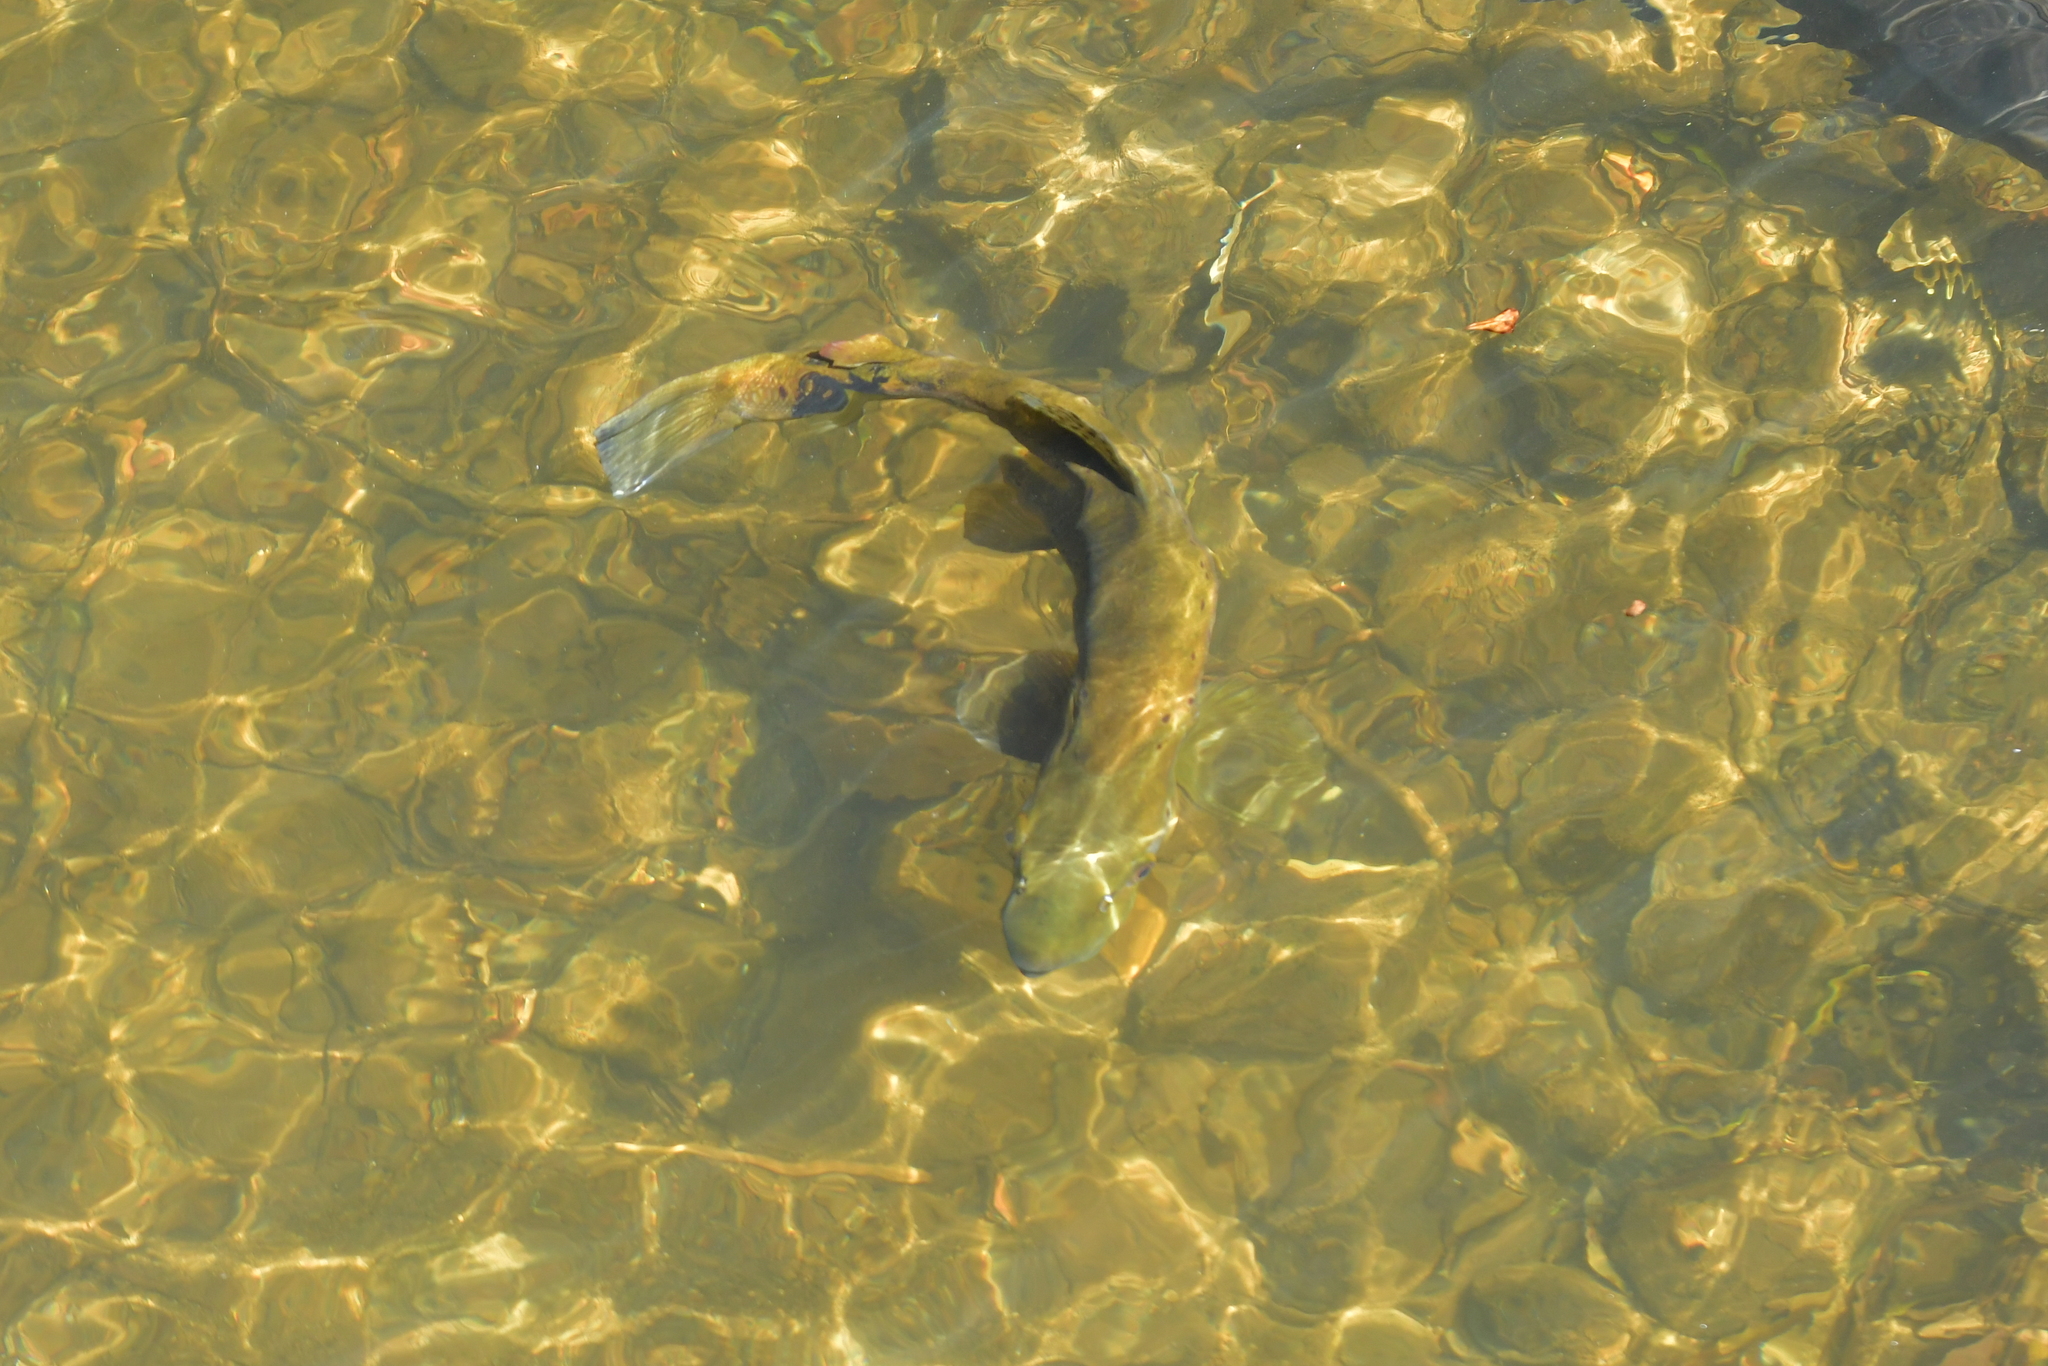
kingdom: Animalia
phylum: Chordata
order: Salmoniformes
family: Salmonidae
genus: Salmo
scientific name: Salmo trutta
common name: Brown trout
